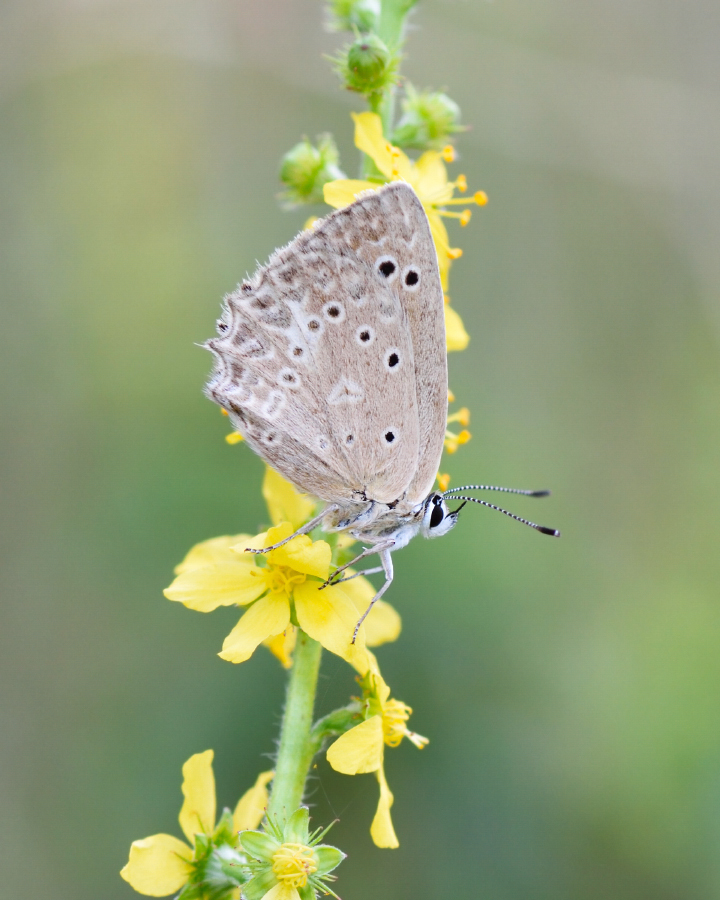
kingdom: Animalia
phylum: Arthropoda
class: Insecta
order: Lepidoptera
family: Lycaenidae
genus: Polyommatus
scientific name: Polyommatus daphnis
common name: Meleager's blue
